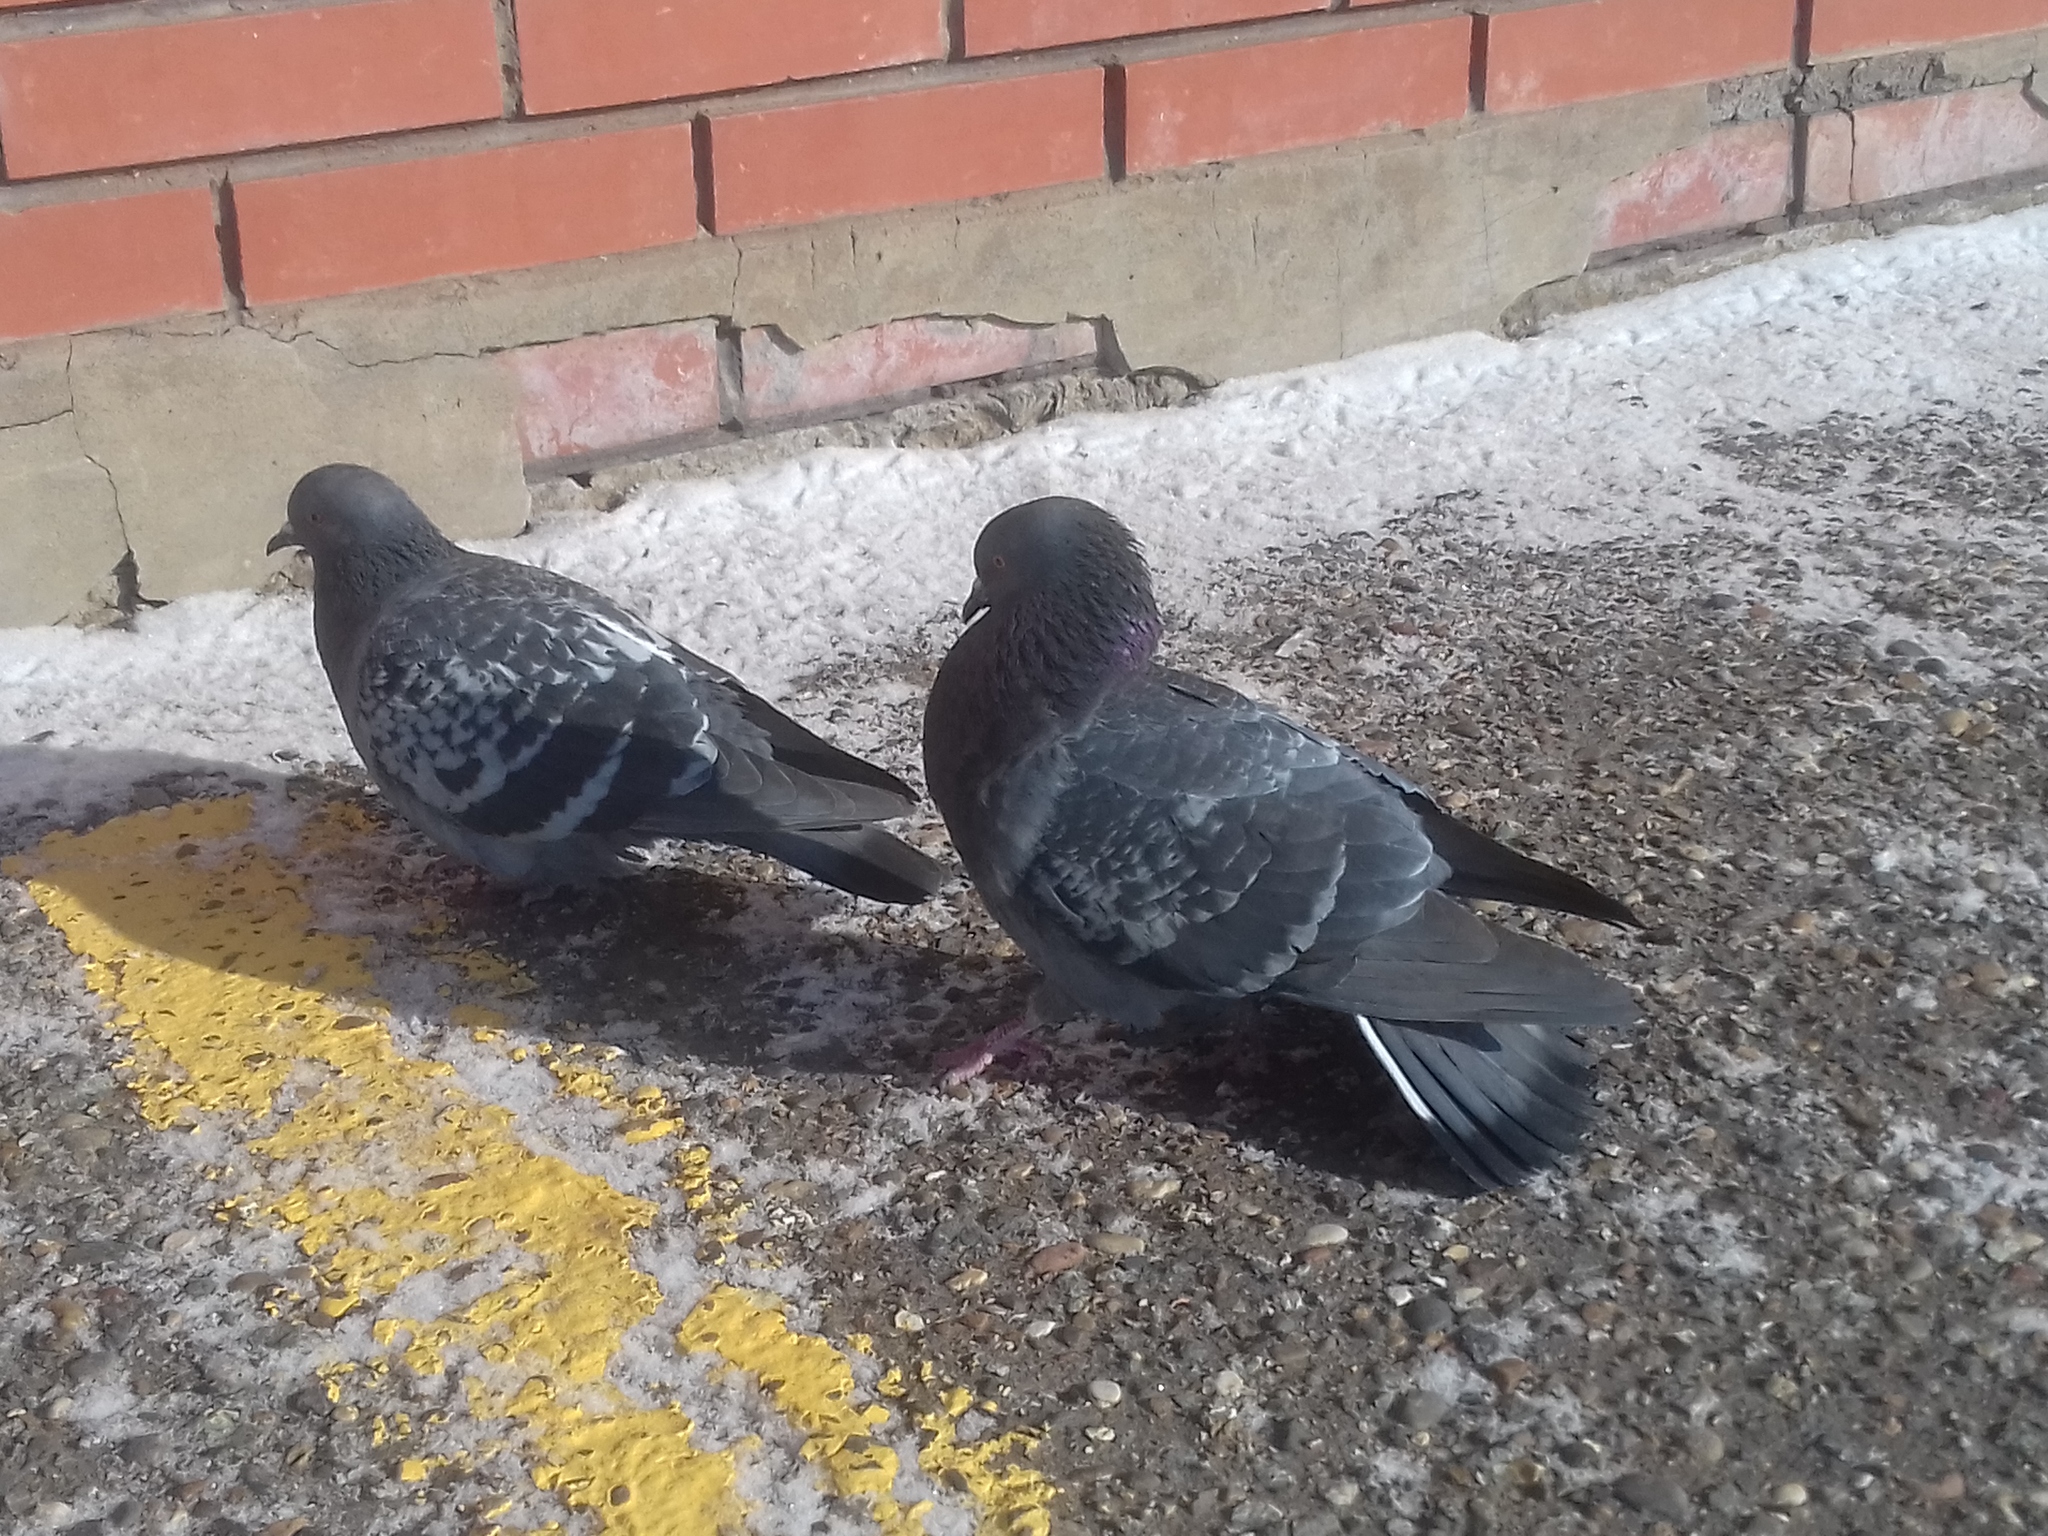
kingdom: Animalia
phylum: Chordata
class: Aves
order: Columbiformes
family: Columbidae
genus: Columba
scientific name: Columba livia
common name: Rock pigeon
